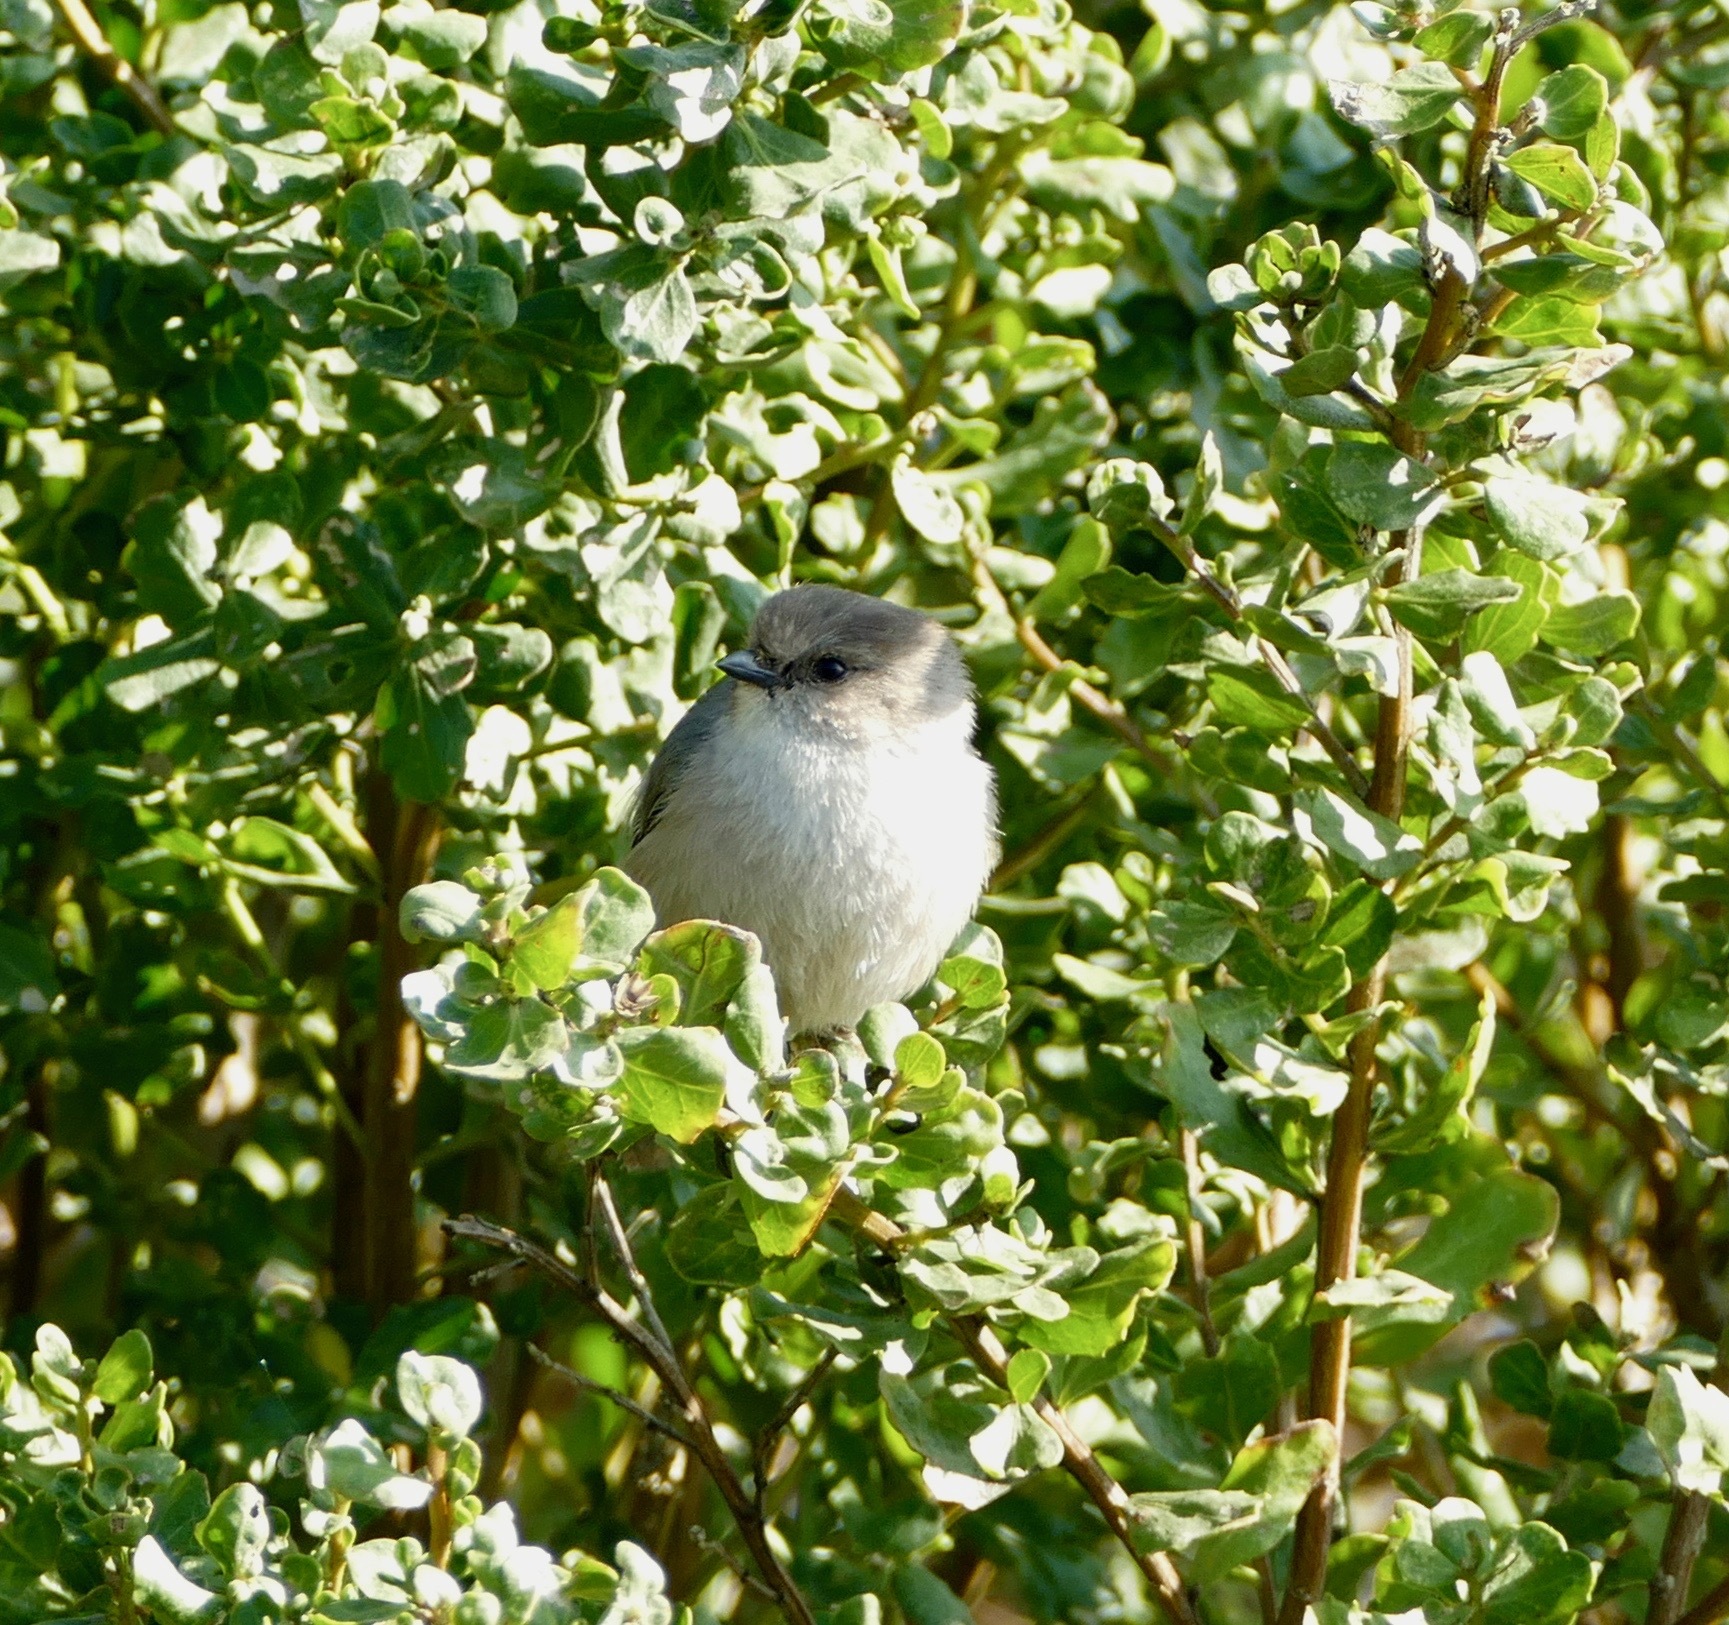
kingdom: Animalia
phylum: Chordata
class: Aves
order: Passeriformes
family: Aegithalidae
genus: Psaltriparus
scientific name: Psaltriparus minimus
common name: American bushtit
